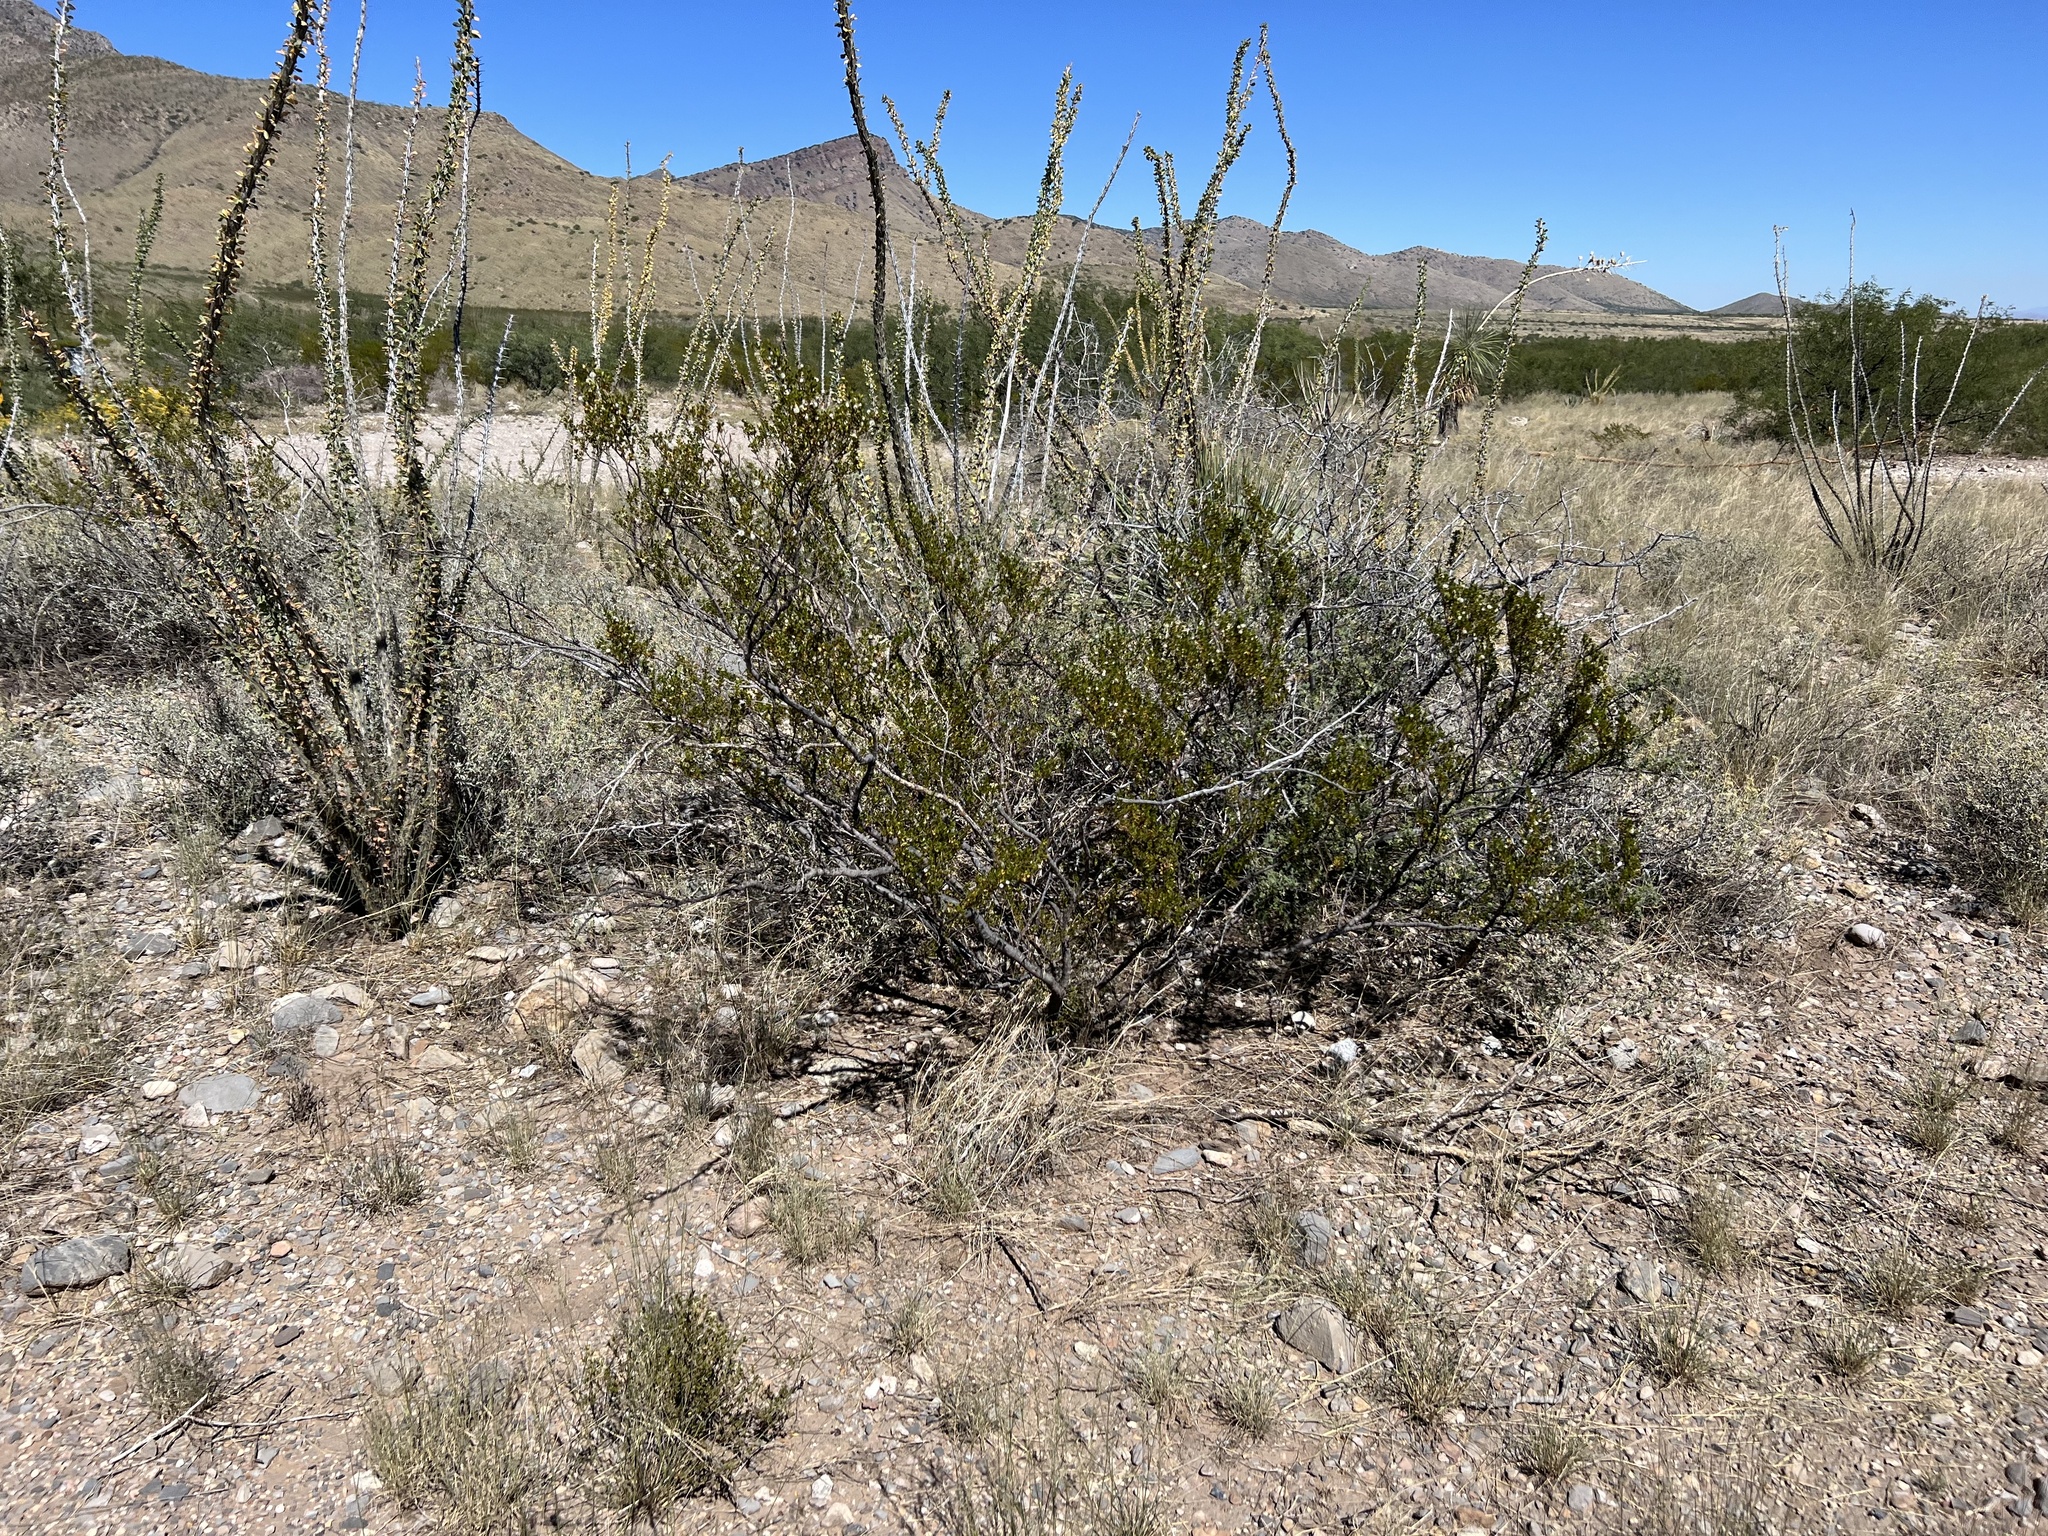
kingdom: Plantae
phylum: Tracheophyta
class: Magnoliopsida
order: Zygophyllales
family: Zygophyllaceae
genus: Larrea
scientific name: Larrea tridentata
